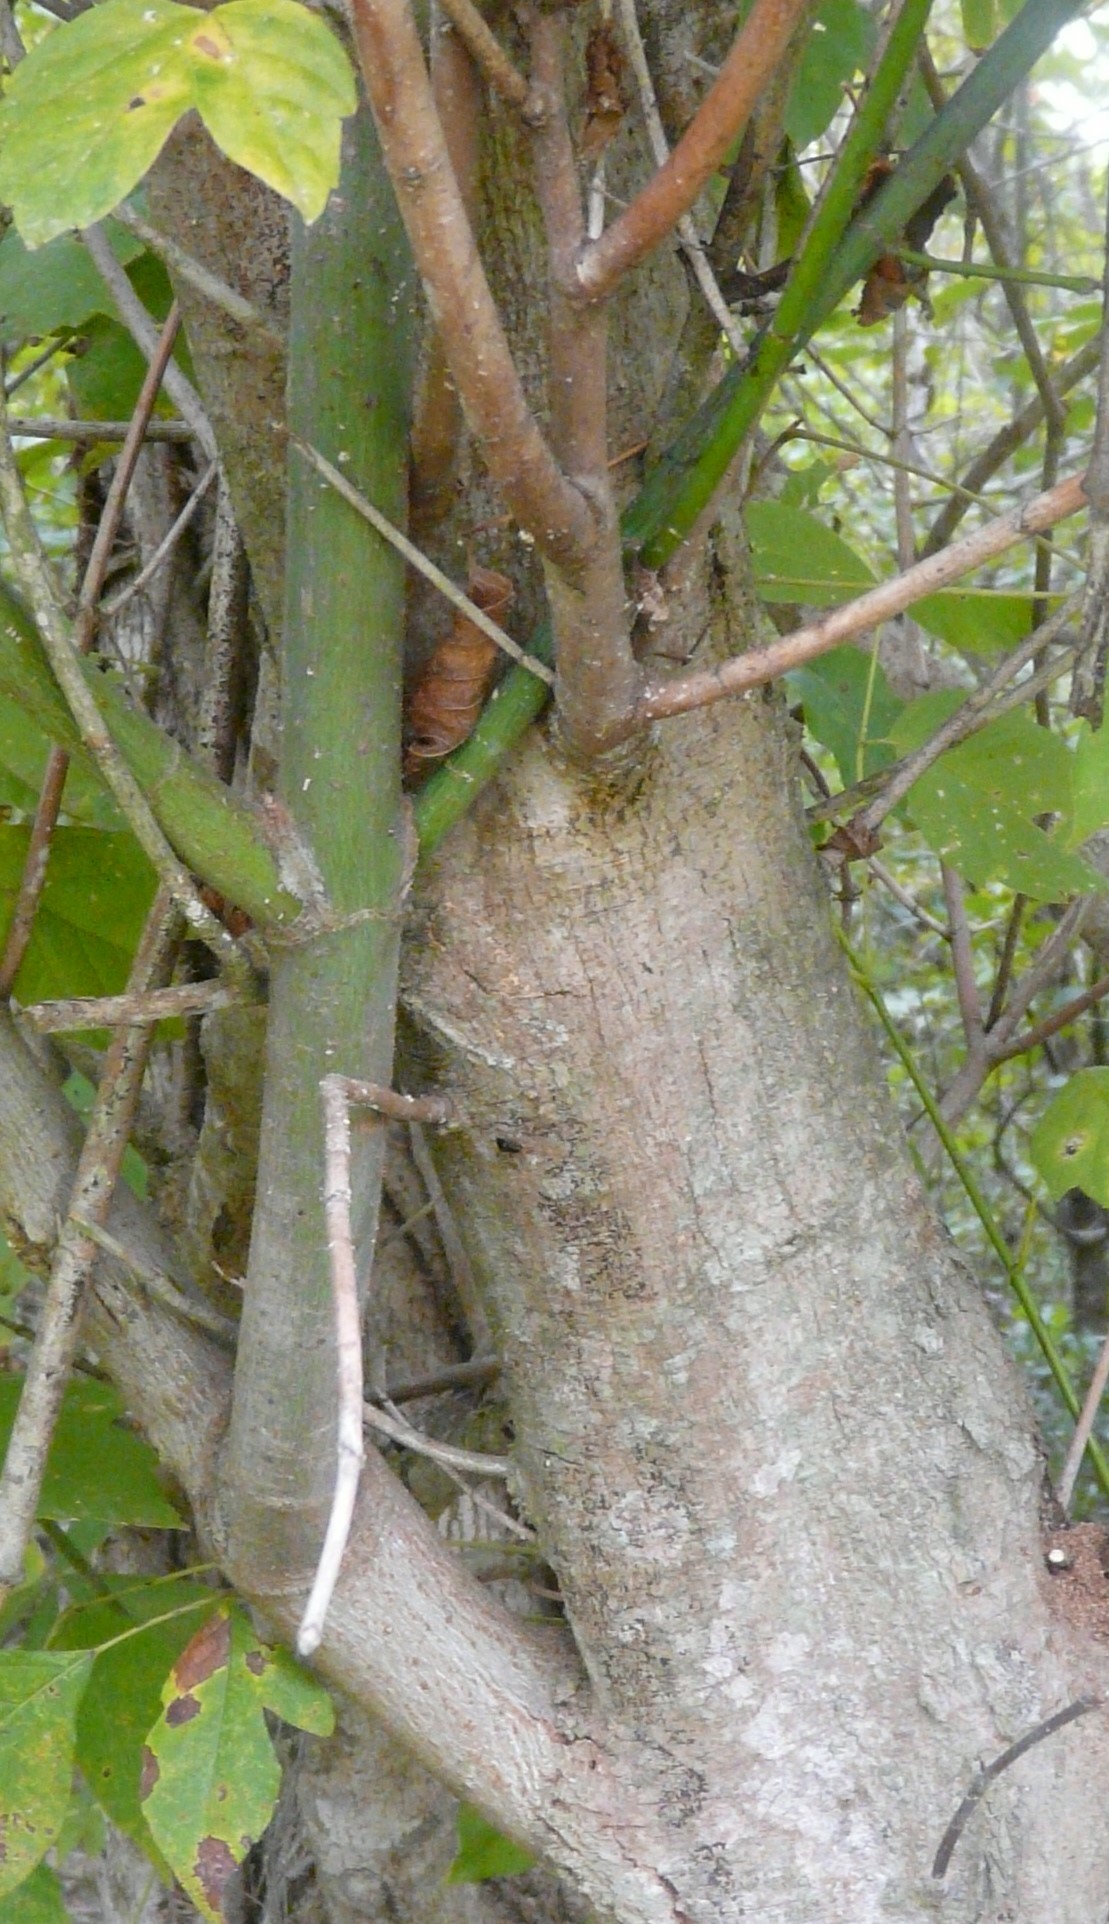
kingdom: Plantae
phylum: Tracheophyta
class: Magnoliopsida
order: Sapindales
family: Sapindaceae
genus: Acer
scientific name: Acer negundo
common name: Ashleaf maple
